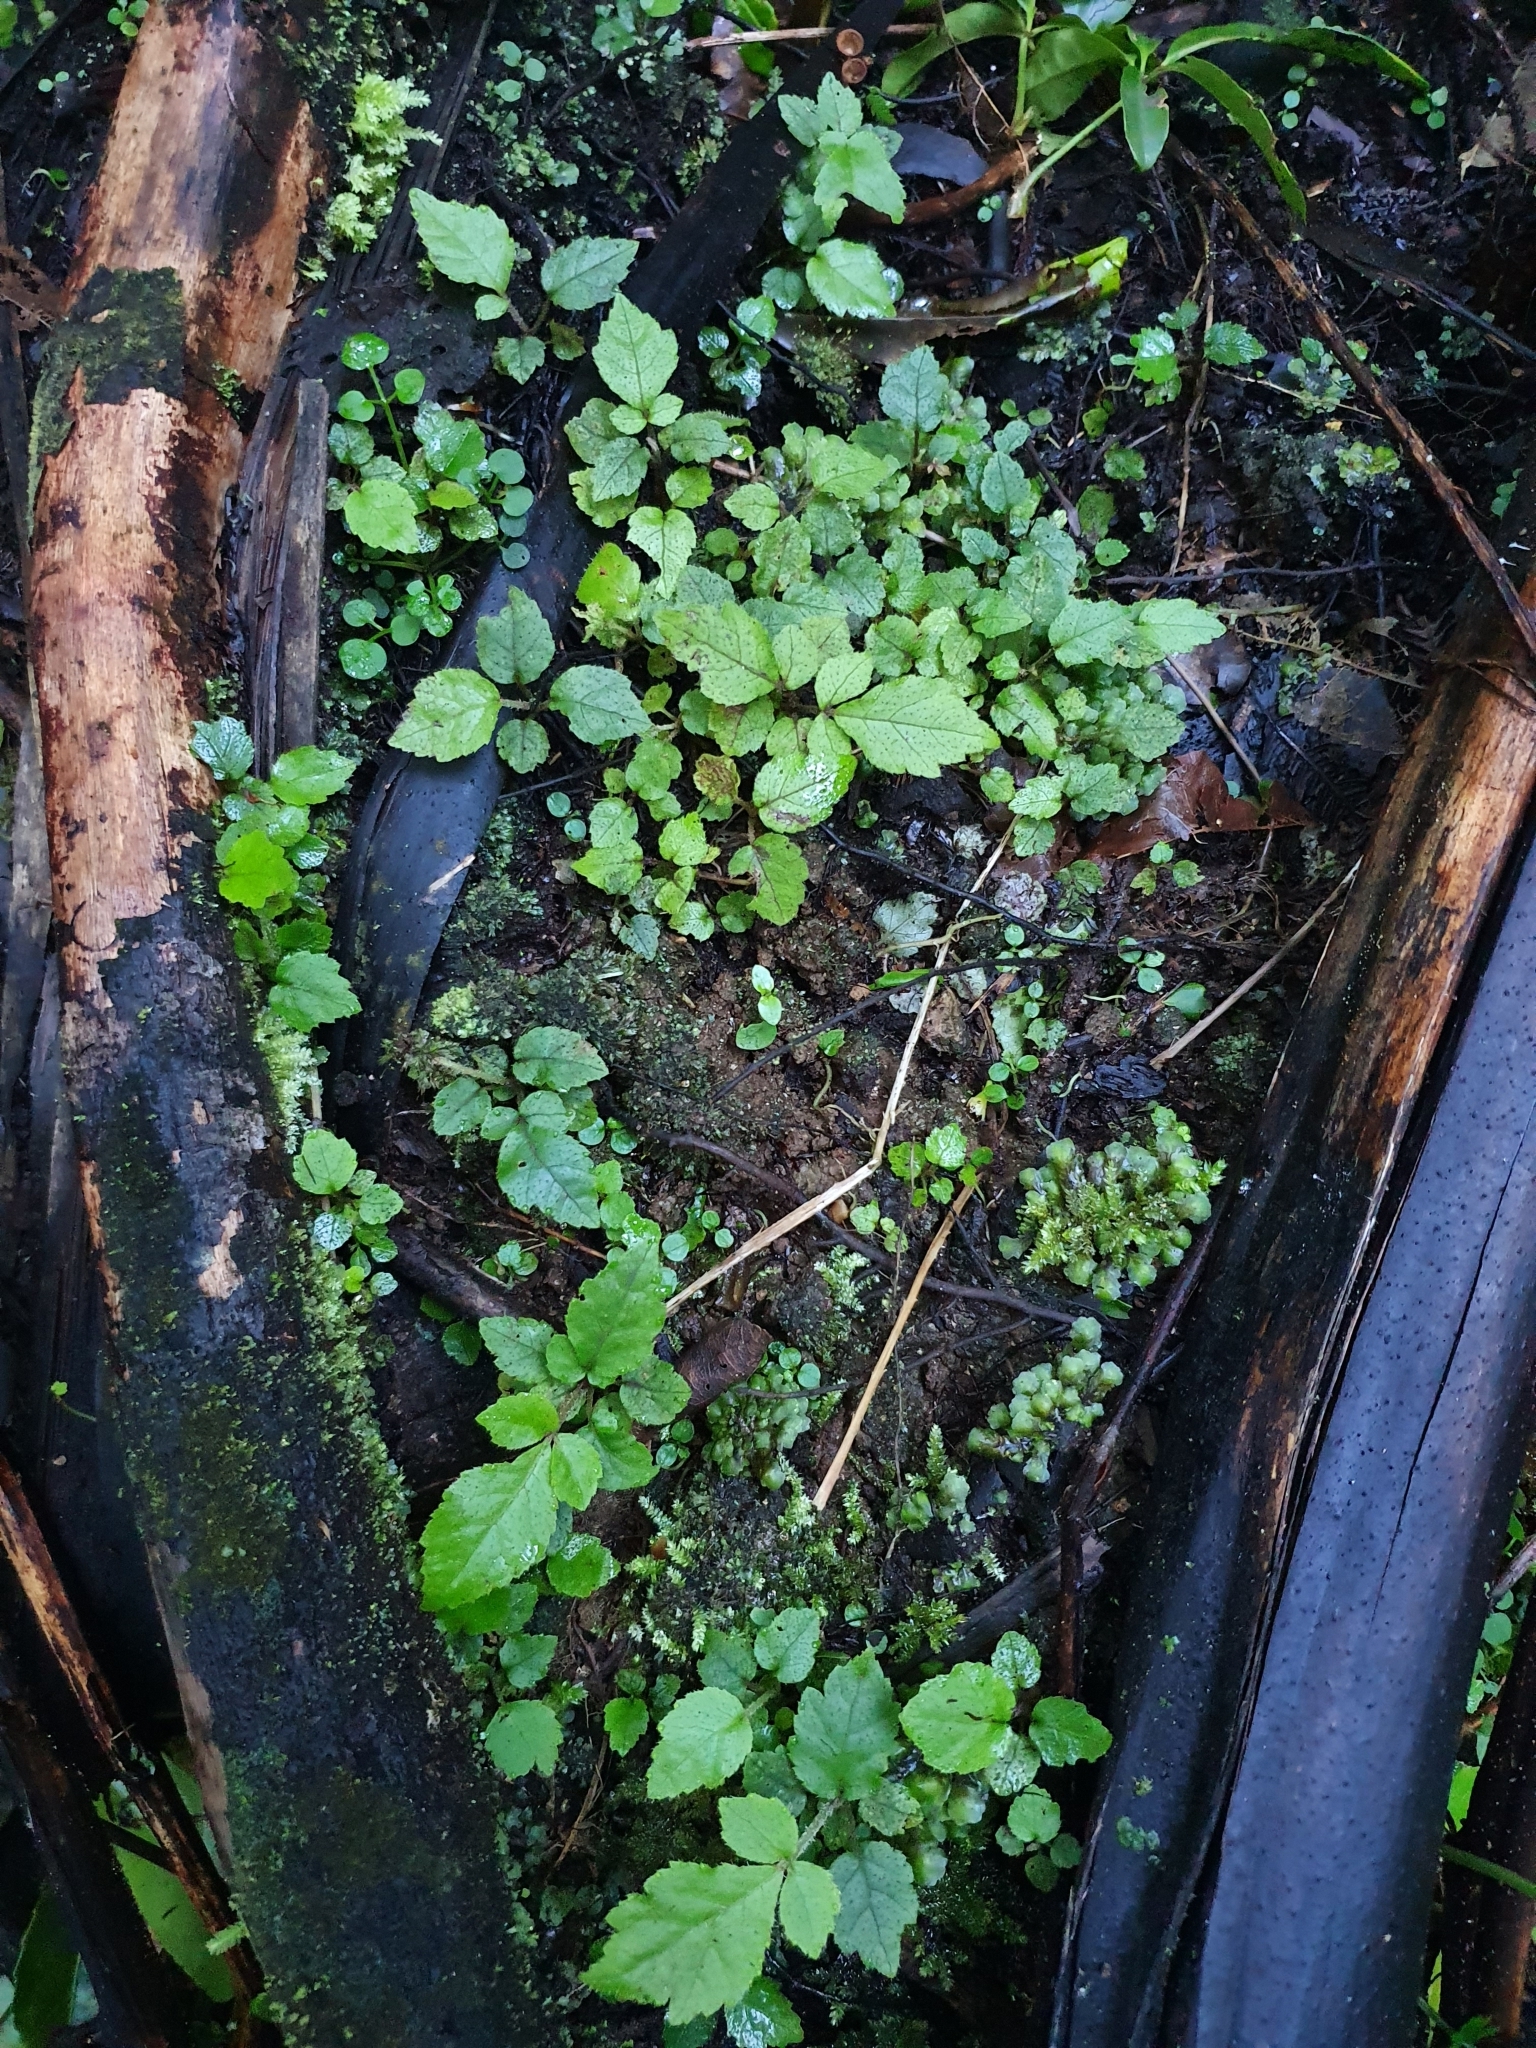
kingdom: Plantae
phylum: Tracheophyta
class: Magnoliopsida
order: Apiales
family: Araliaceae
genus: Schefflera
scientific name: Schefflera digitata
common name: Pate
